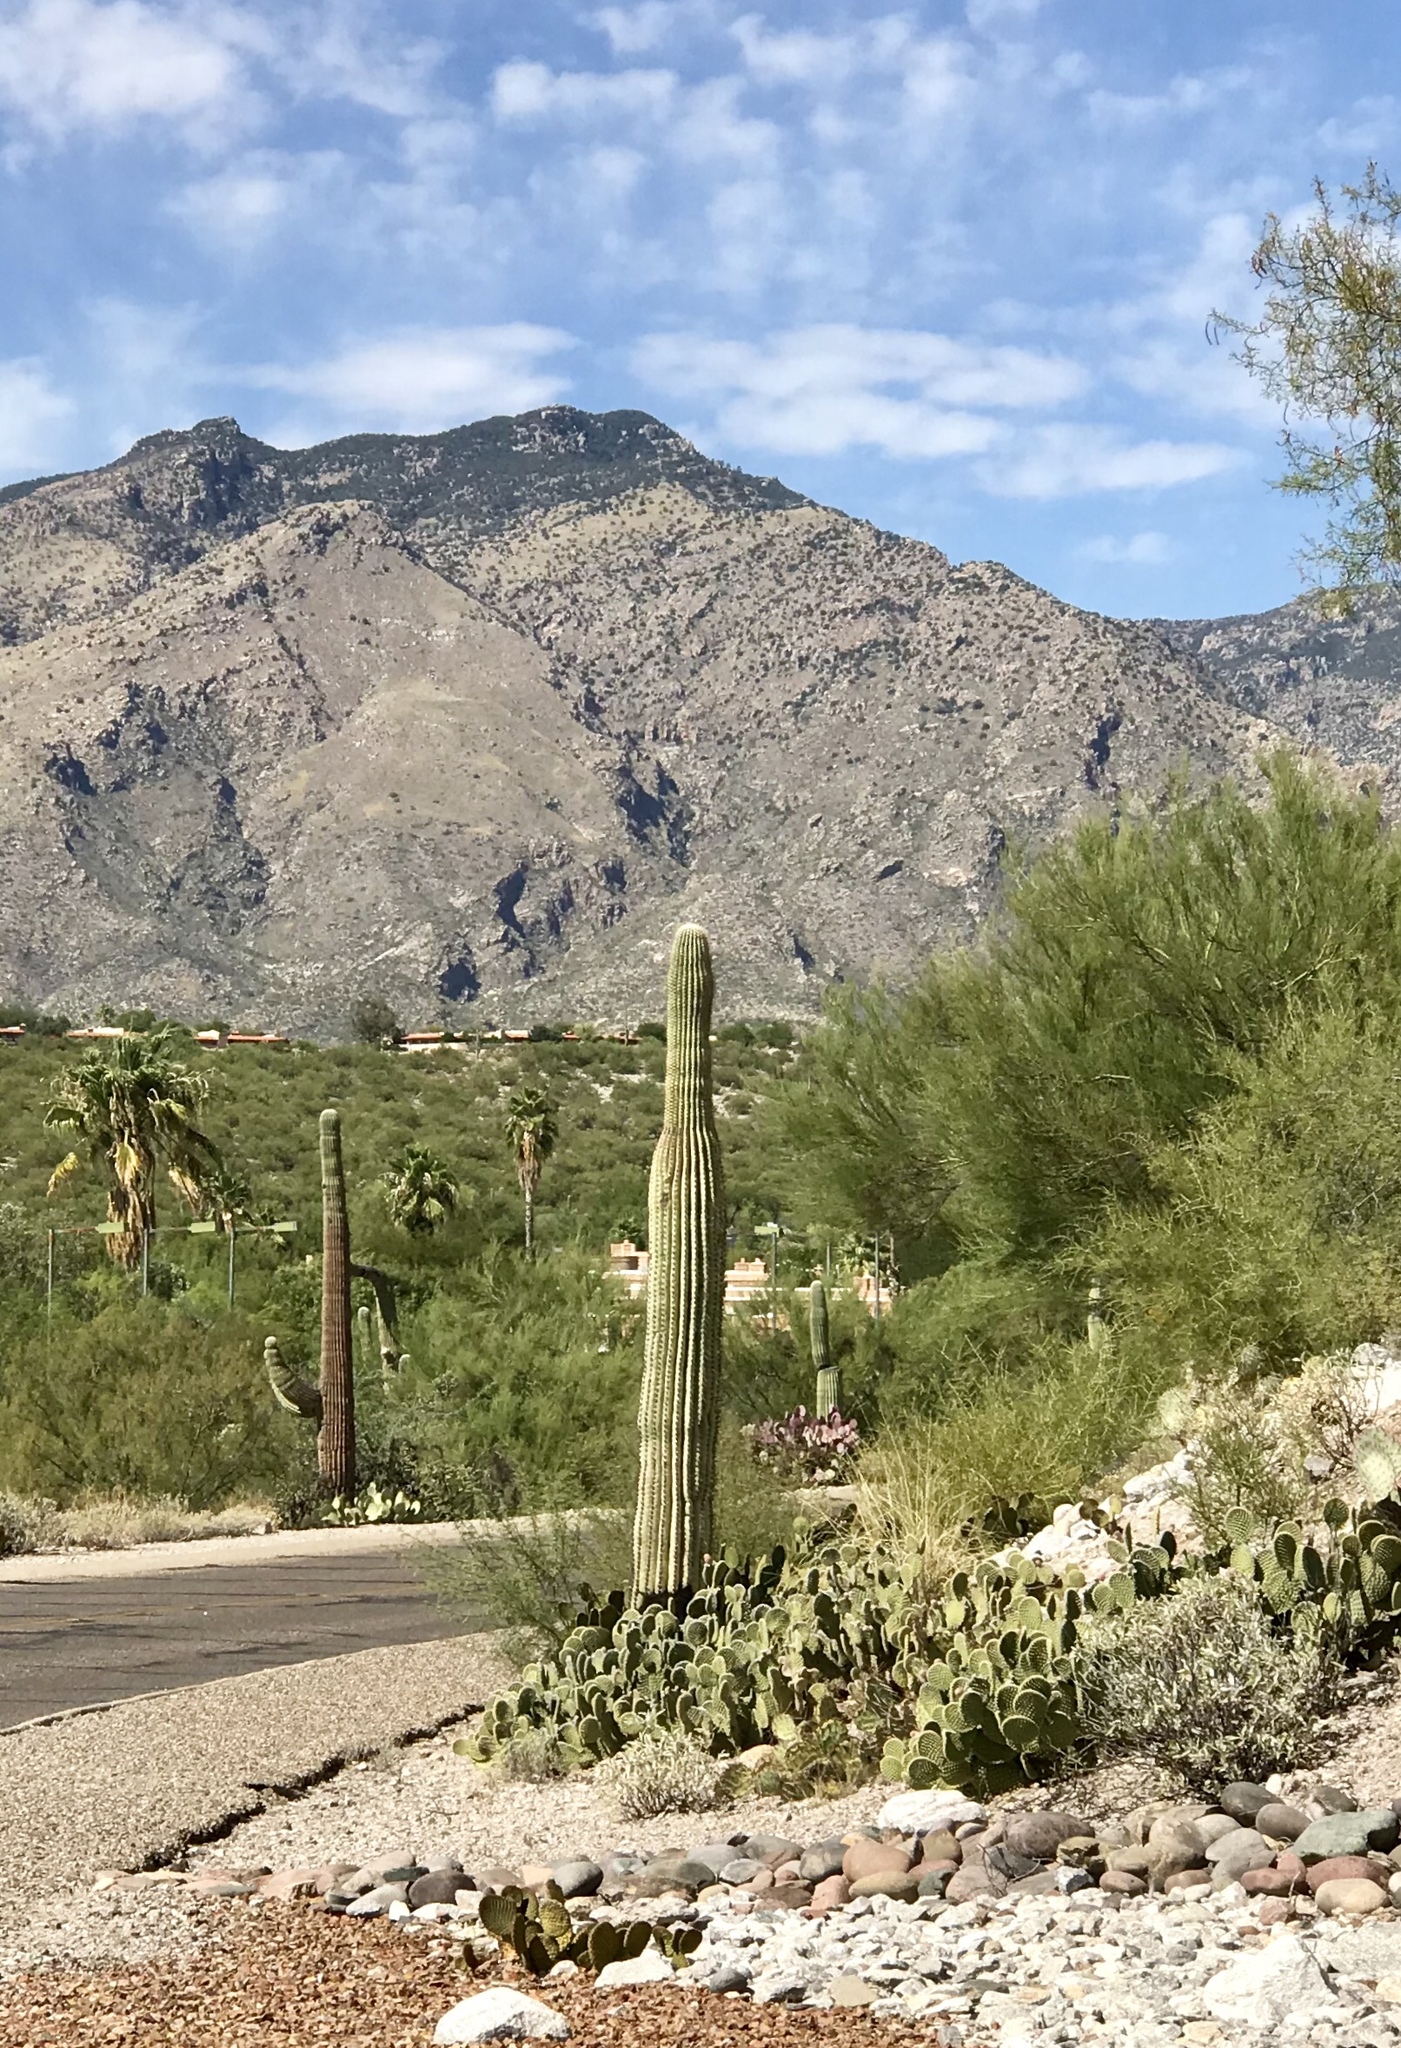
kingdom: Plantae
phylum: Tracheophyta
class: Magnoliopsida
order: Caryophyllales
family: Cactaceae
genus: Carnegiea
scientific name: Carnegiea gigantea
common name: Saguaro
